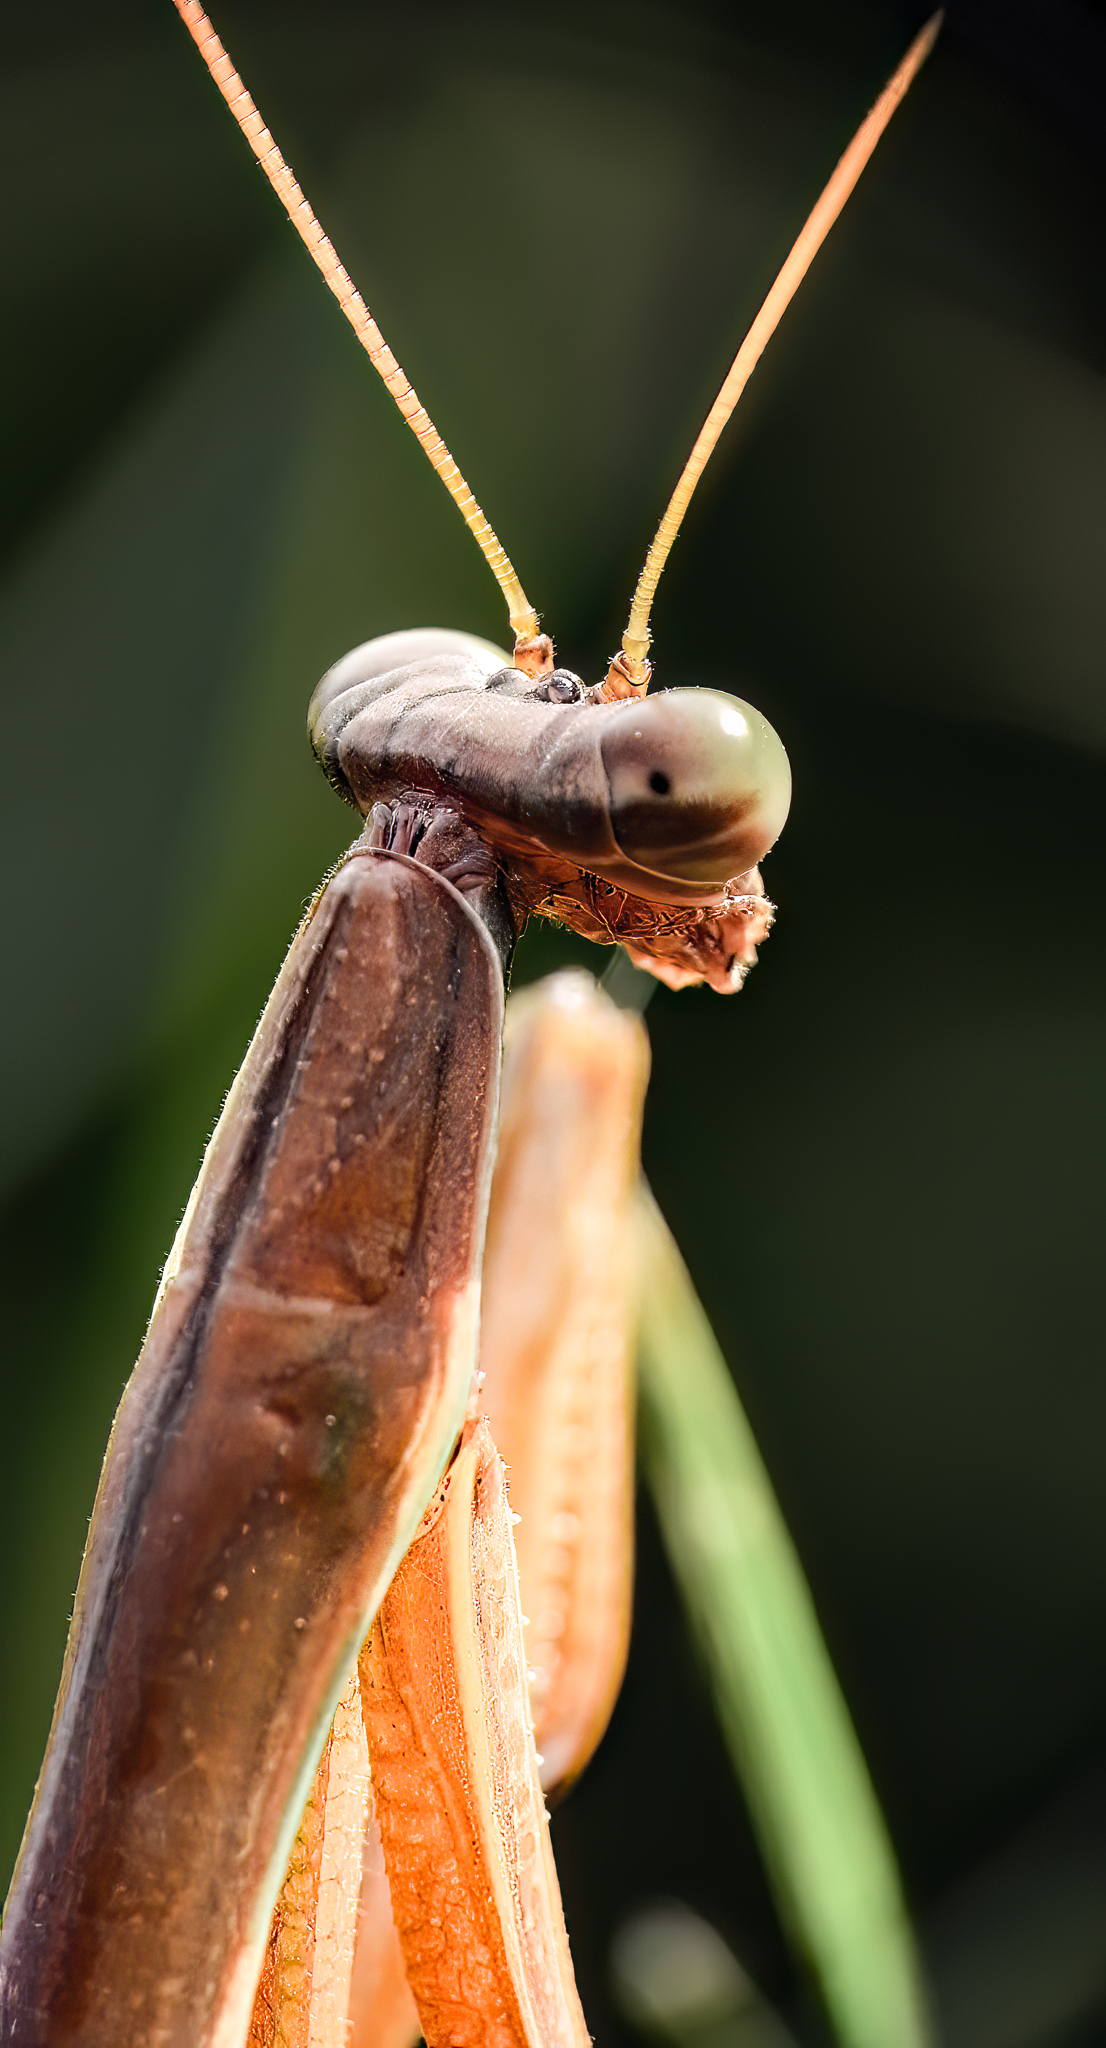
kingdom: Animalia
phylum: Arthropoda
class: Insecta
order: Mantodea
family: Mantidae
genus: Tenodera
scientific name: Tenodera sinensis
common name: Chinese mantis
